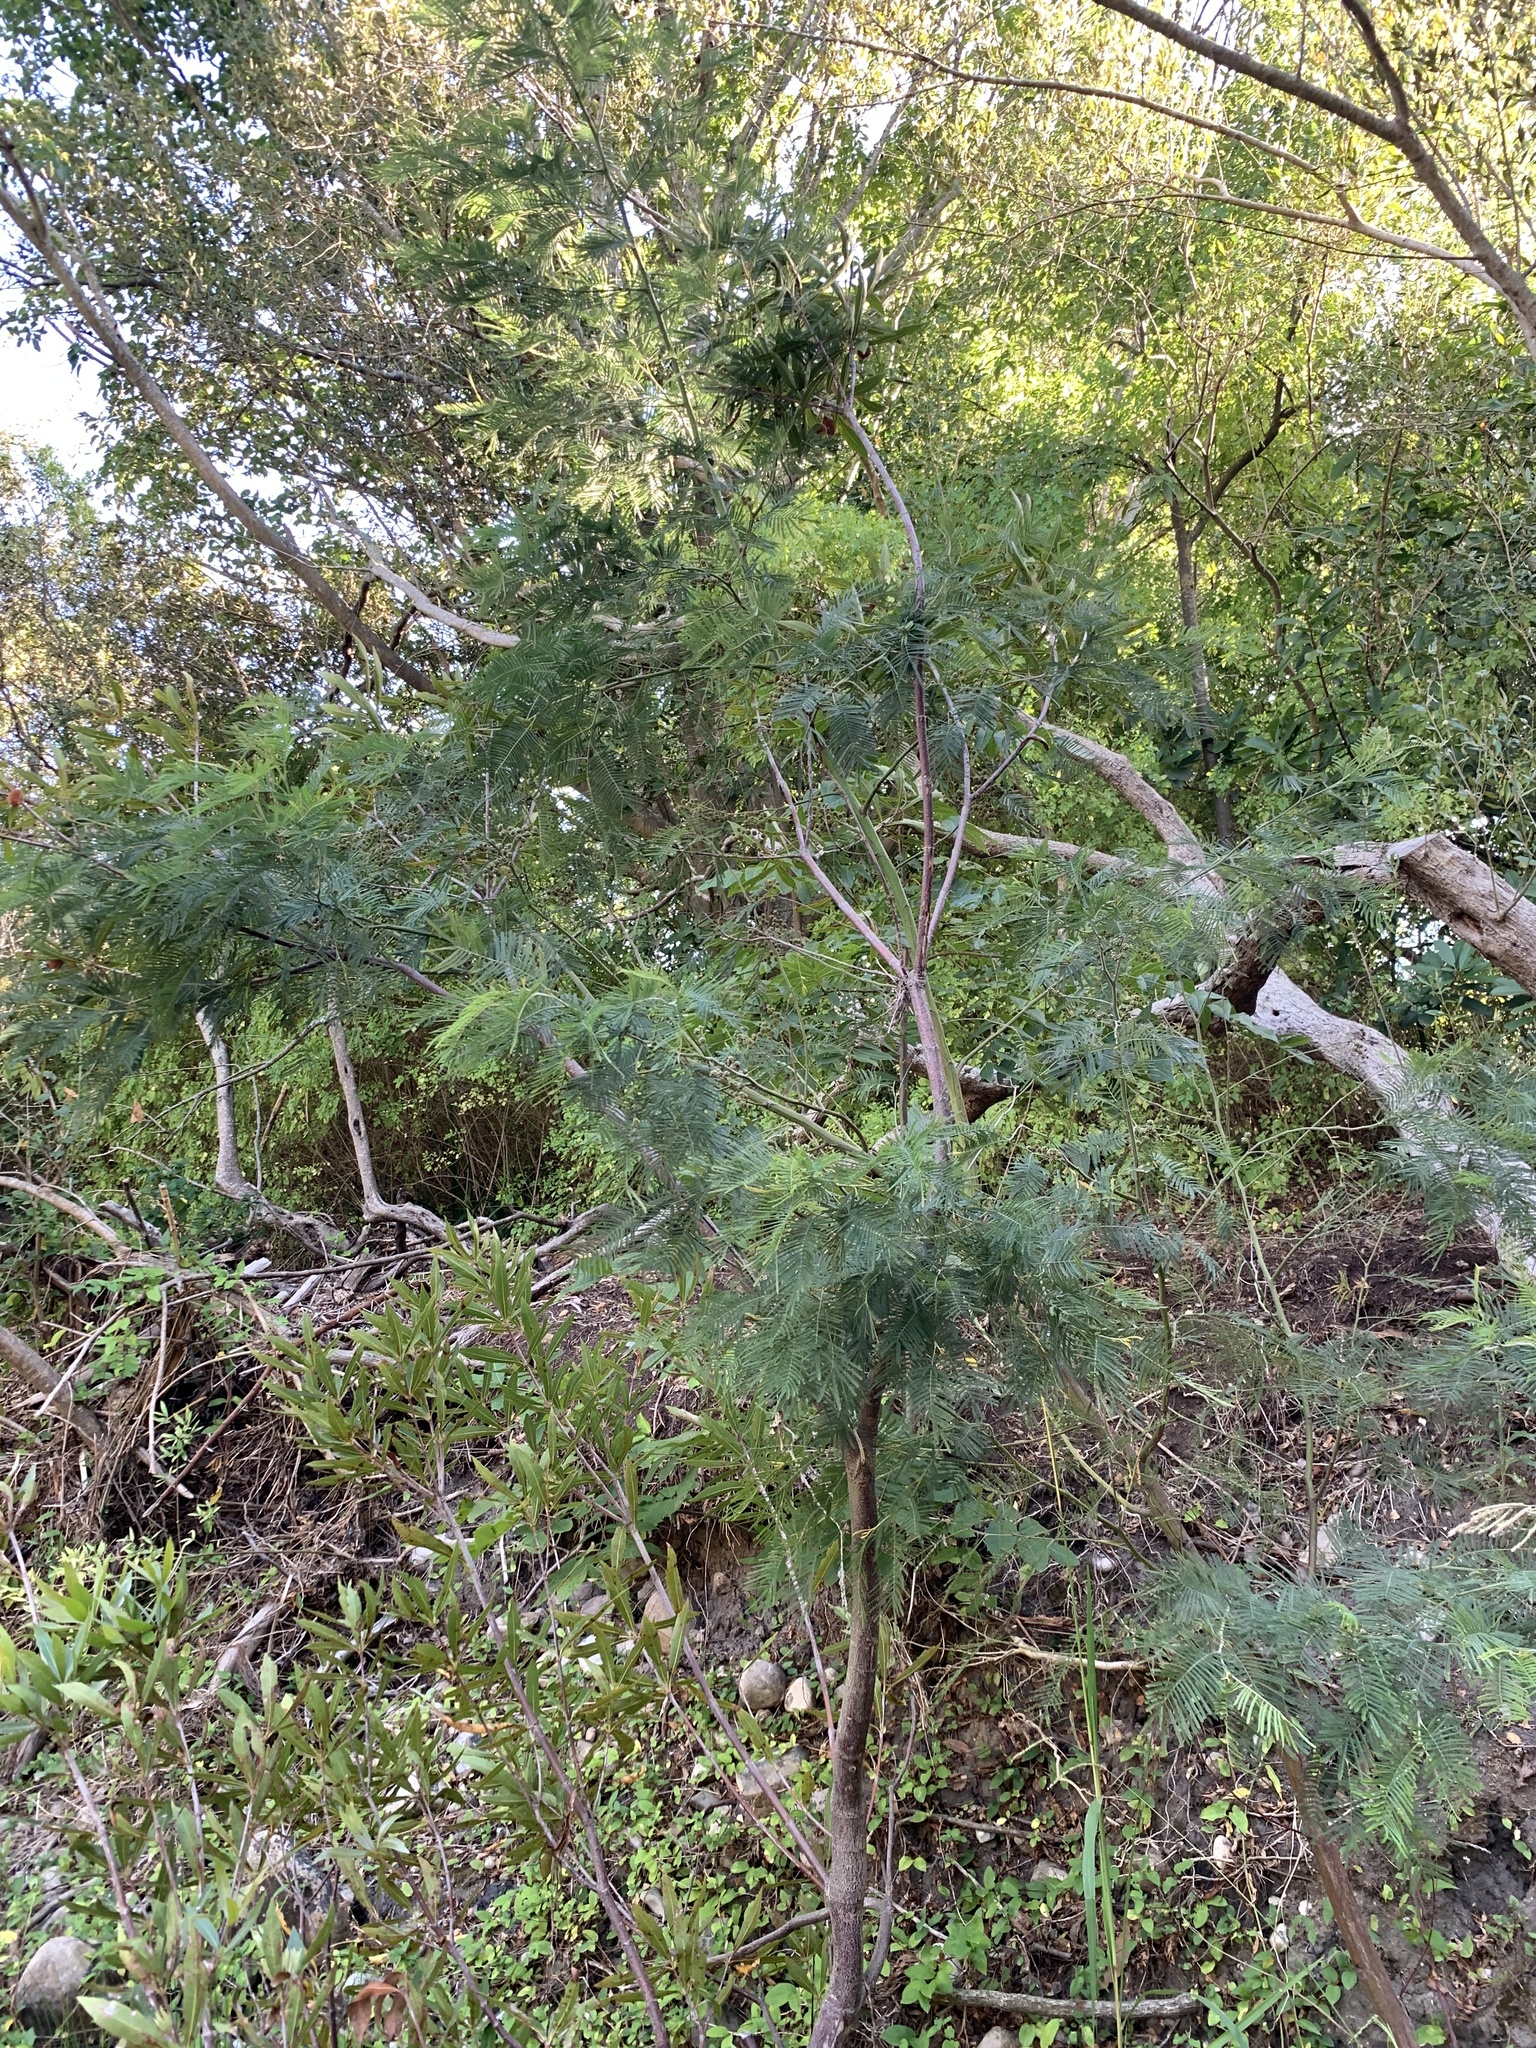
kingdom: Plantae
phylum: Tracheophyta
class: Magnoliopsida
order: Fabales
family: Fabaceae
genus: Acacia
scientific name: Acacia mearnsii
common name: Black wattle
